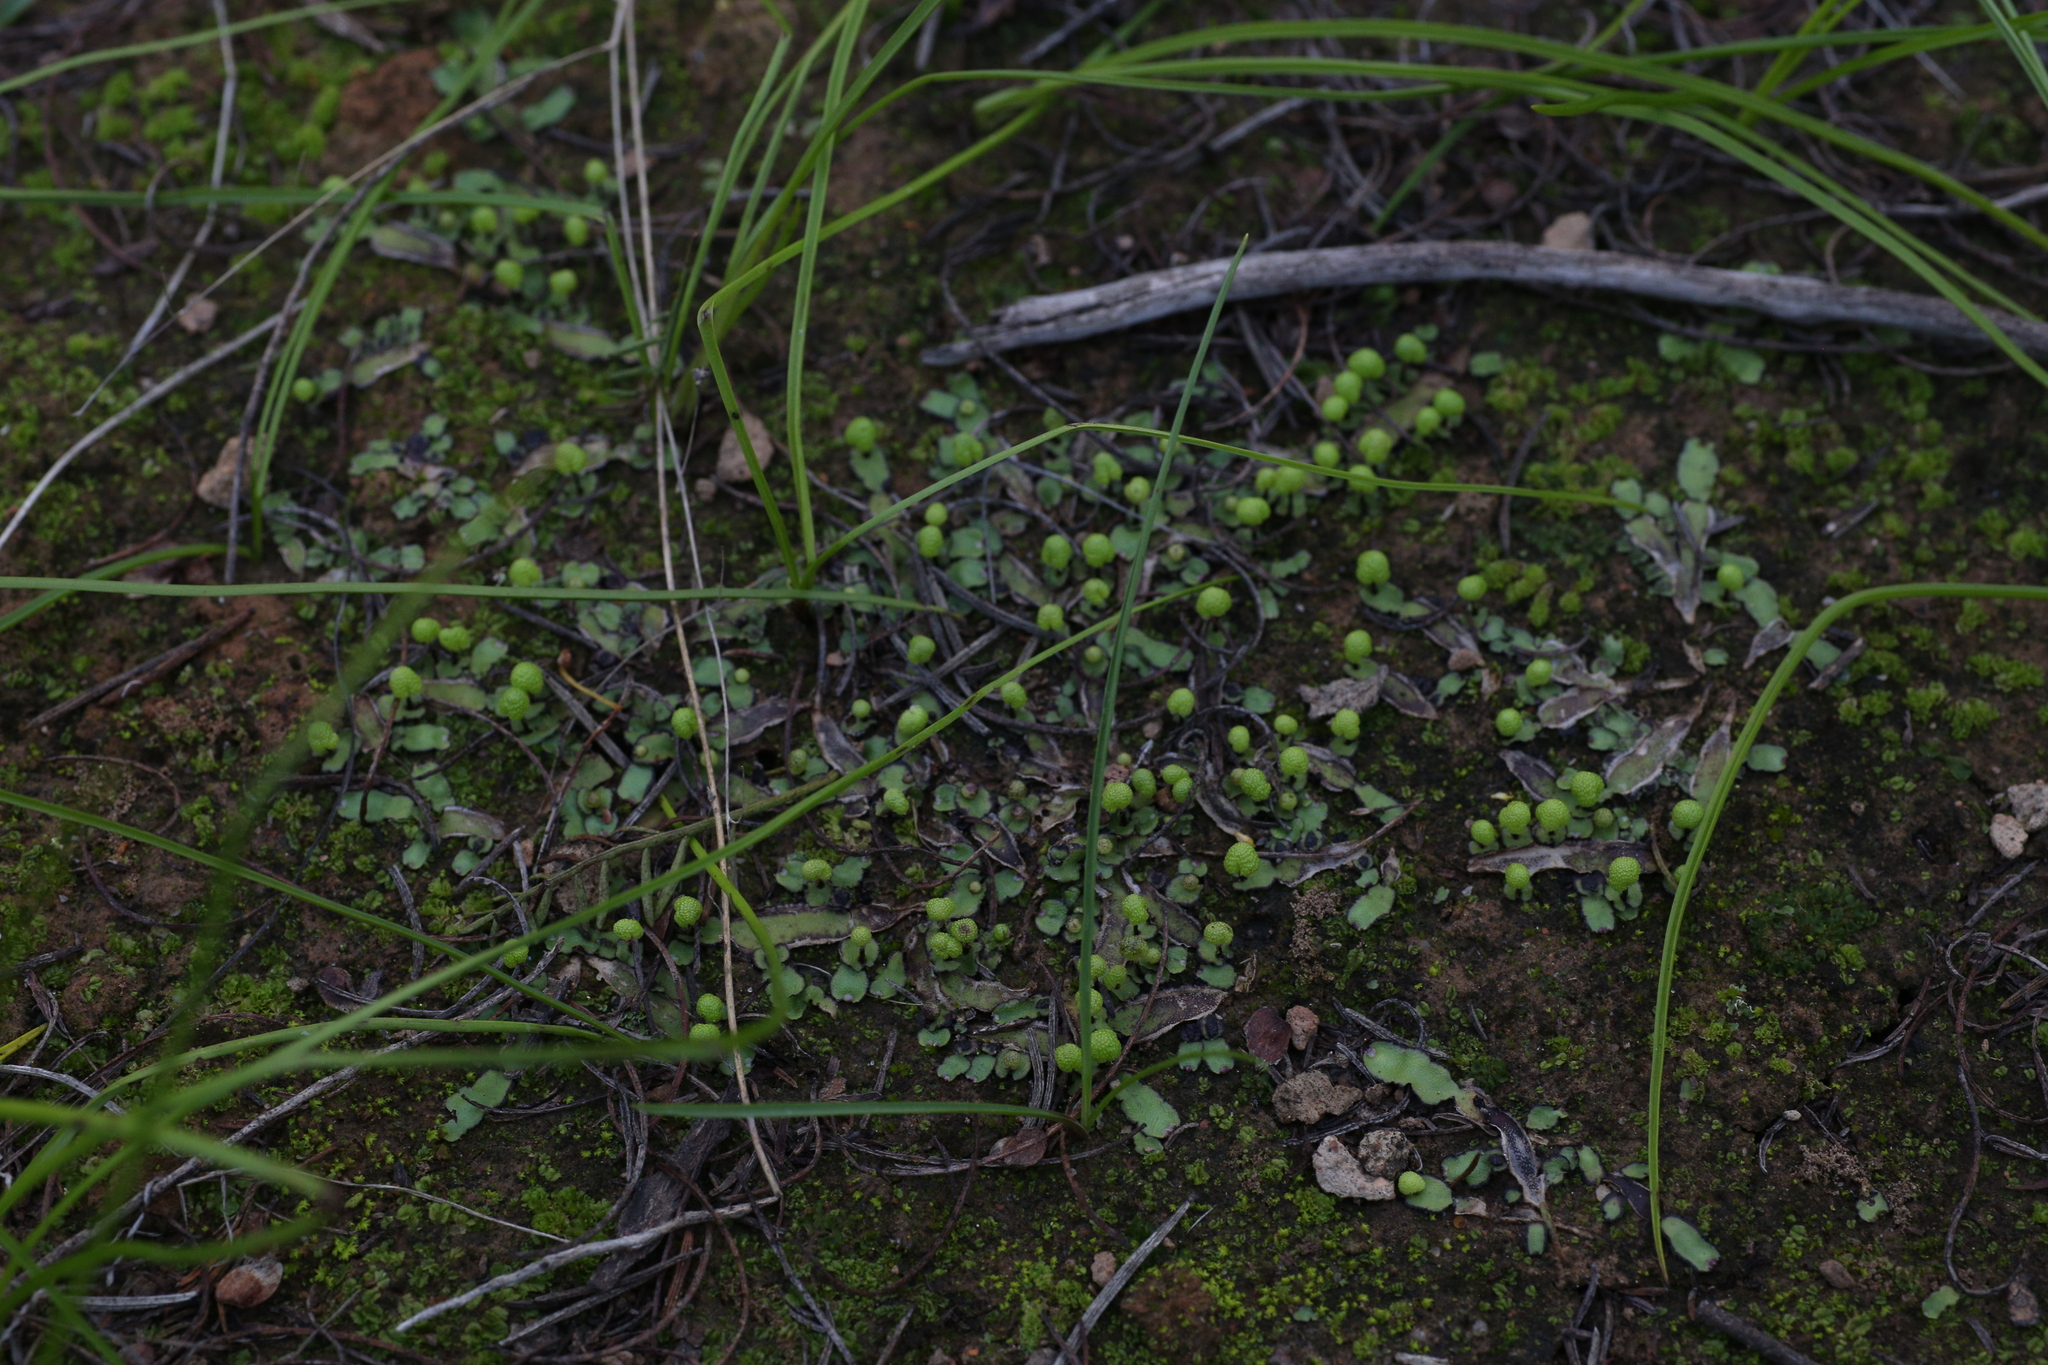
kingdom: Plantae
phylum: Marchantiophyta
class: Marchantiopsida
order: Marchantiales
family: Aytoniaceae
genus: Asterella
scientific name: Asterella drummondii
